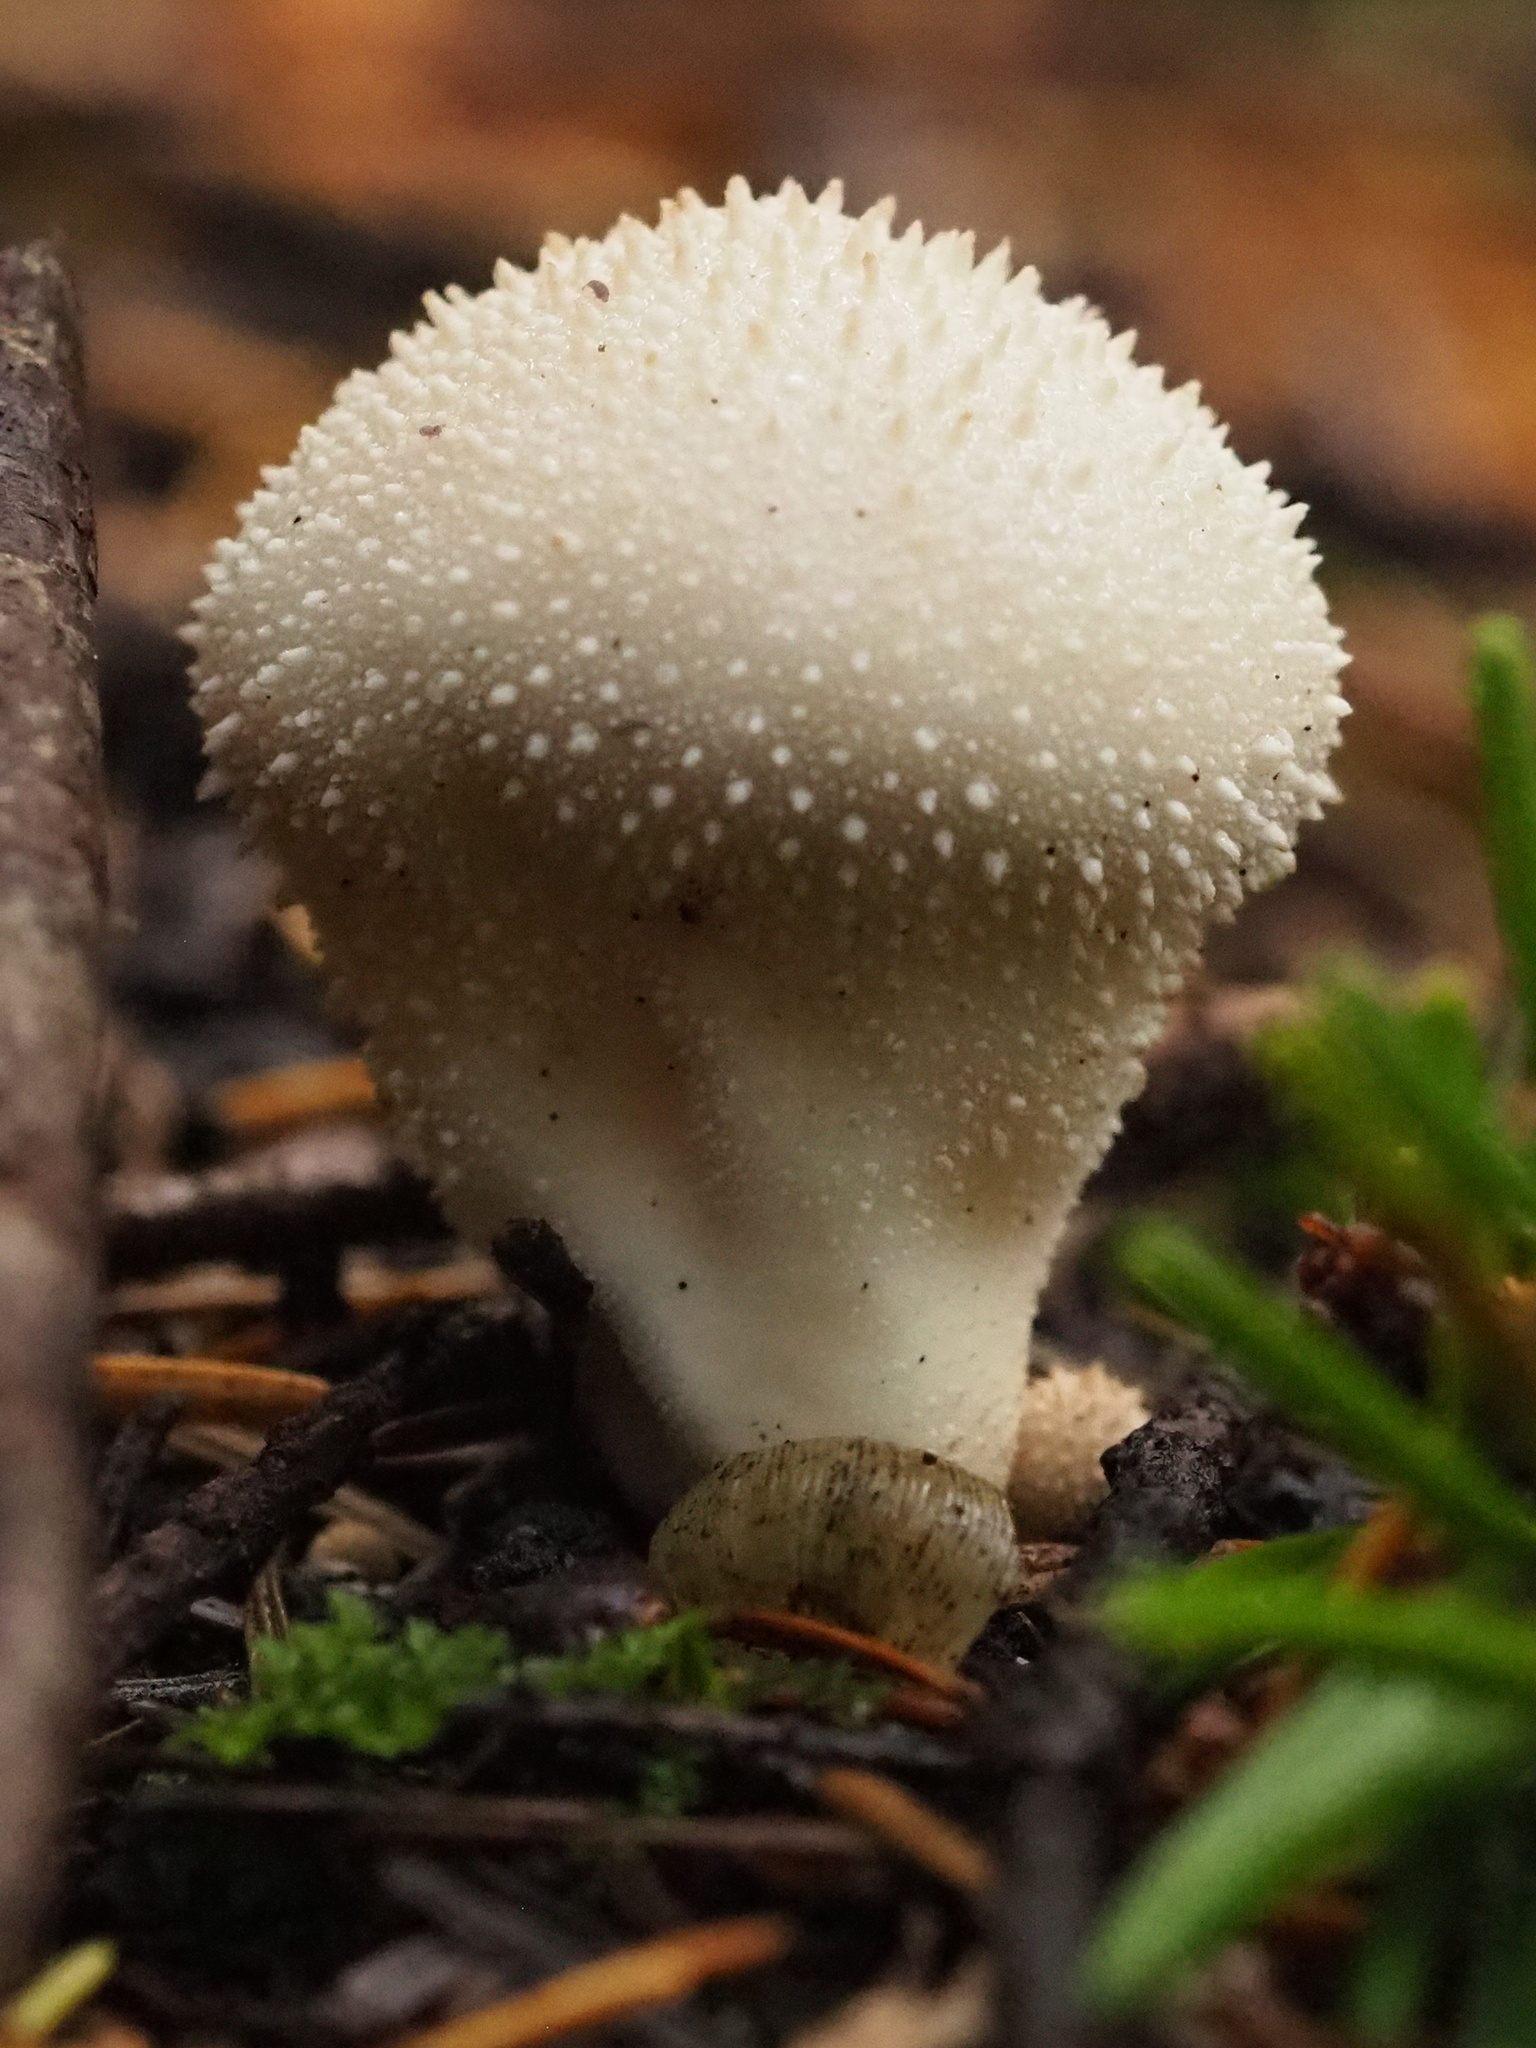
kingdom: Fungi
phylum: Basidiomycota
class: Agaricomycetes
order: Agaricales
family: Lycoperdaceae
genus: Lycoperdon
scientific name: Lycoperdon perlatum
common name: Common puffball
